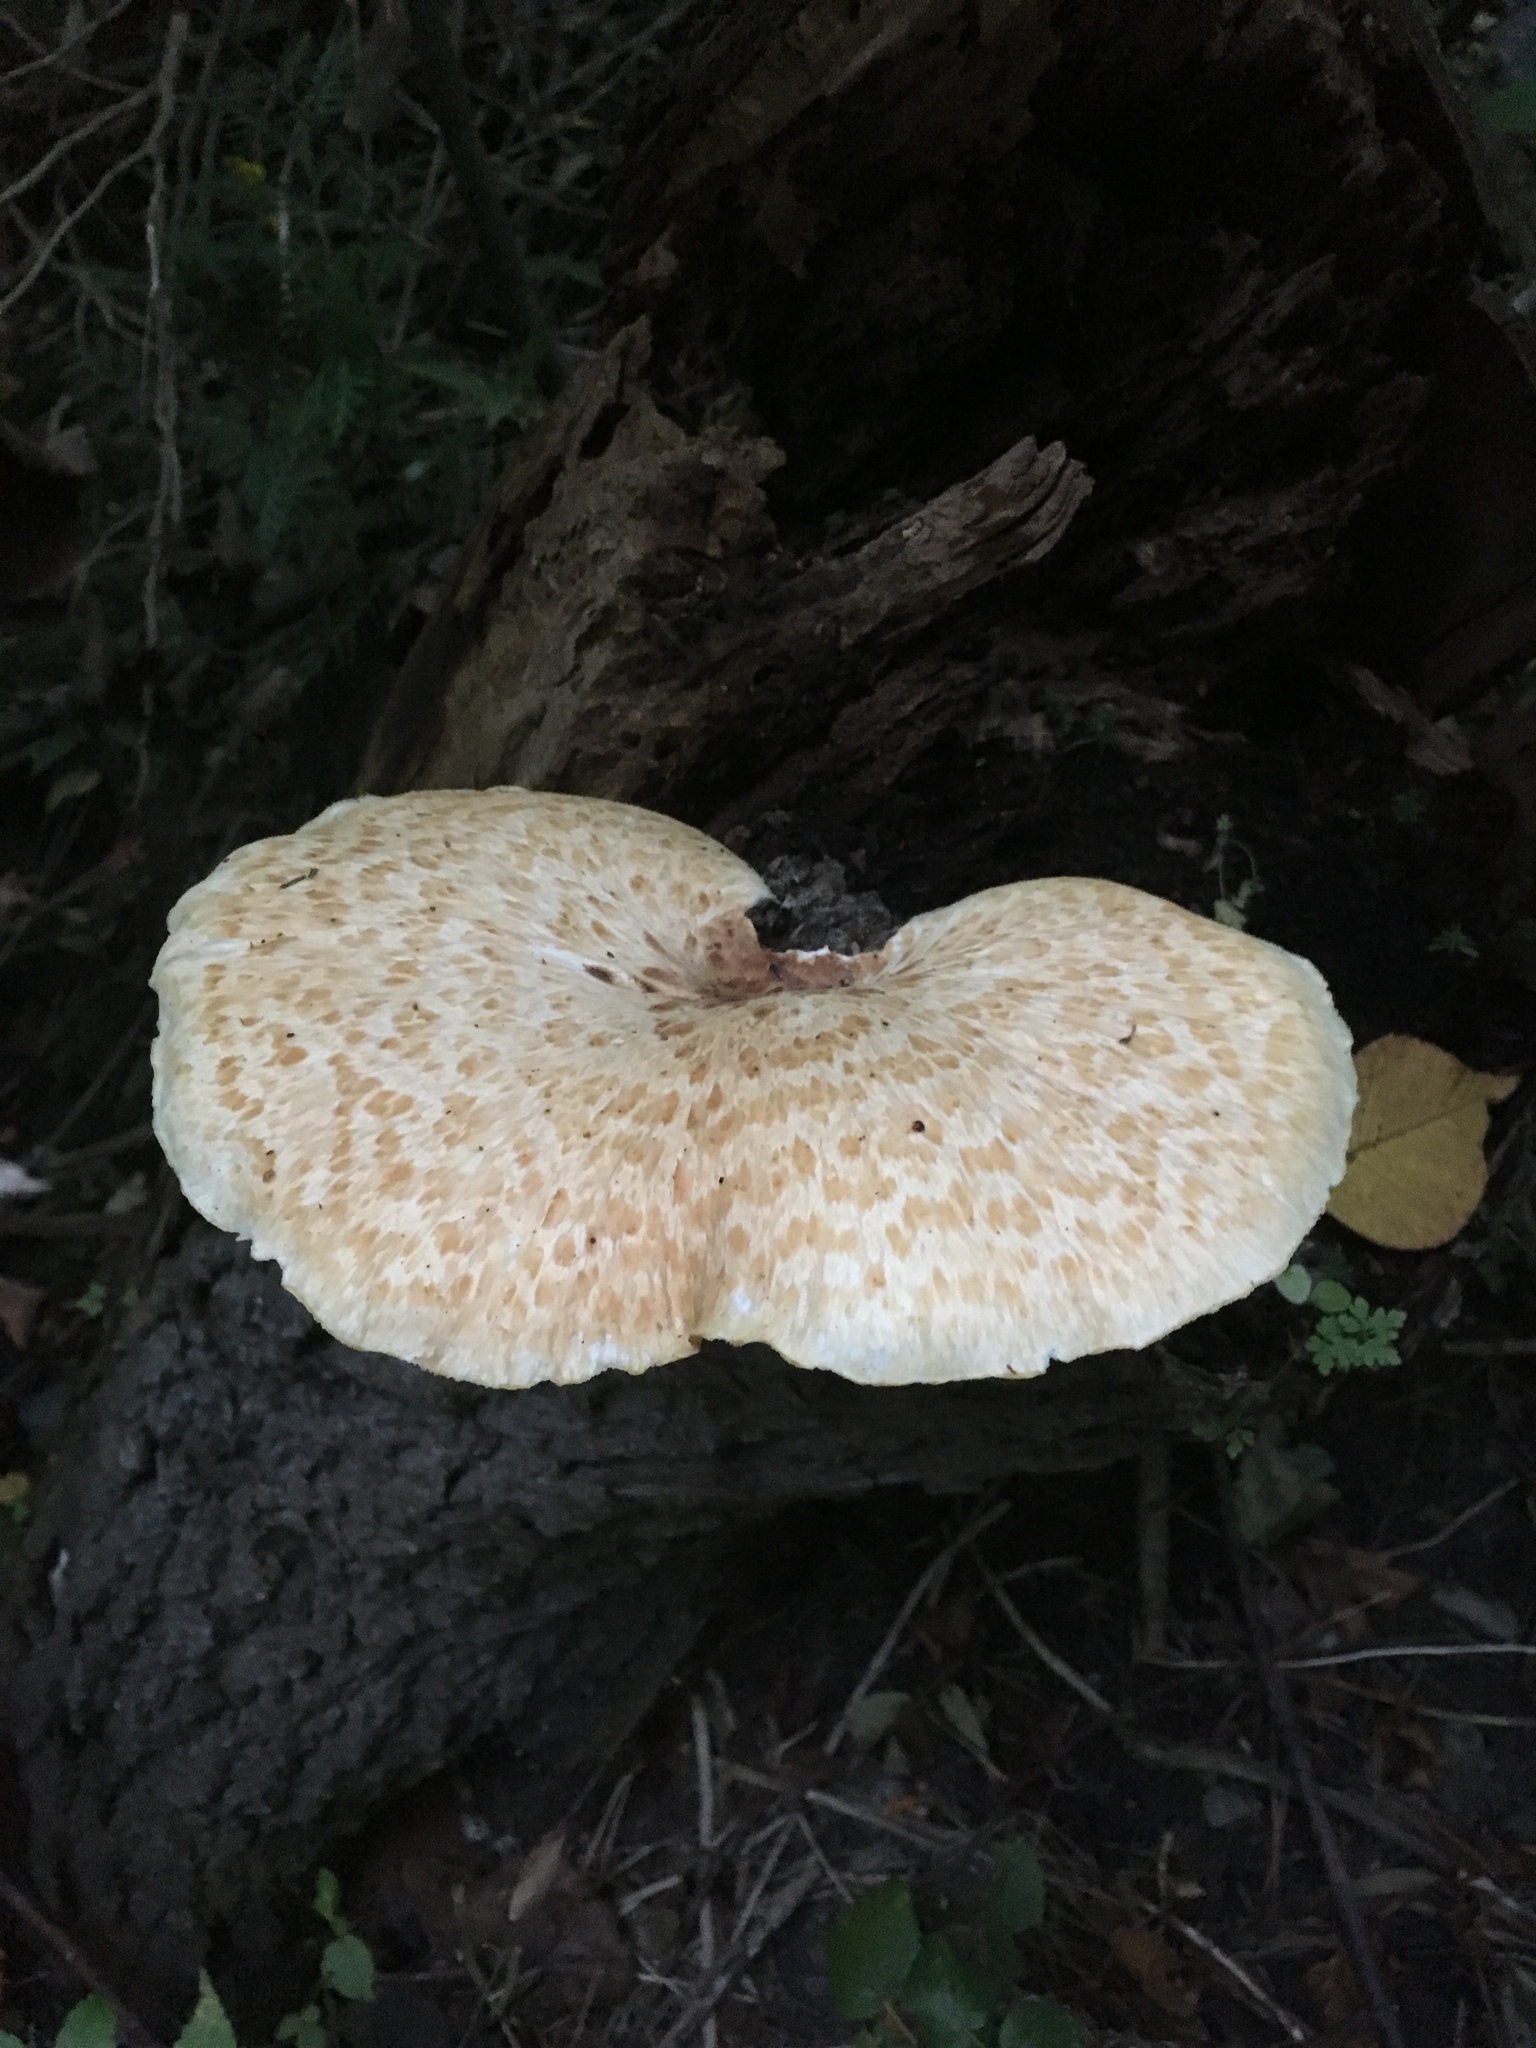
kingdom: Fungi
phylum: Basidiomycota
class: Agaricomycetes
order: Polyporales
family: Polyporaceae
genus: Cerioporus
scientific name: Cerioporus squamosus
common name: Dryad's saddle
